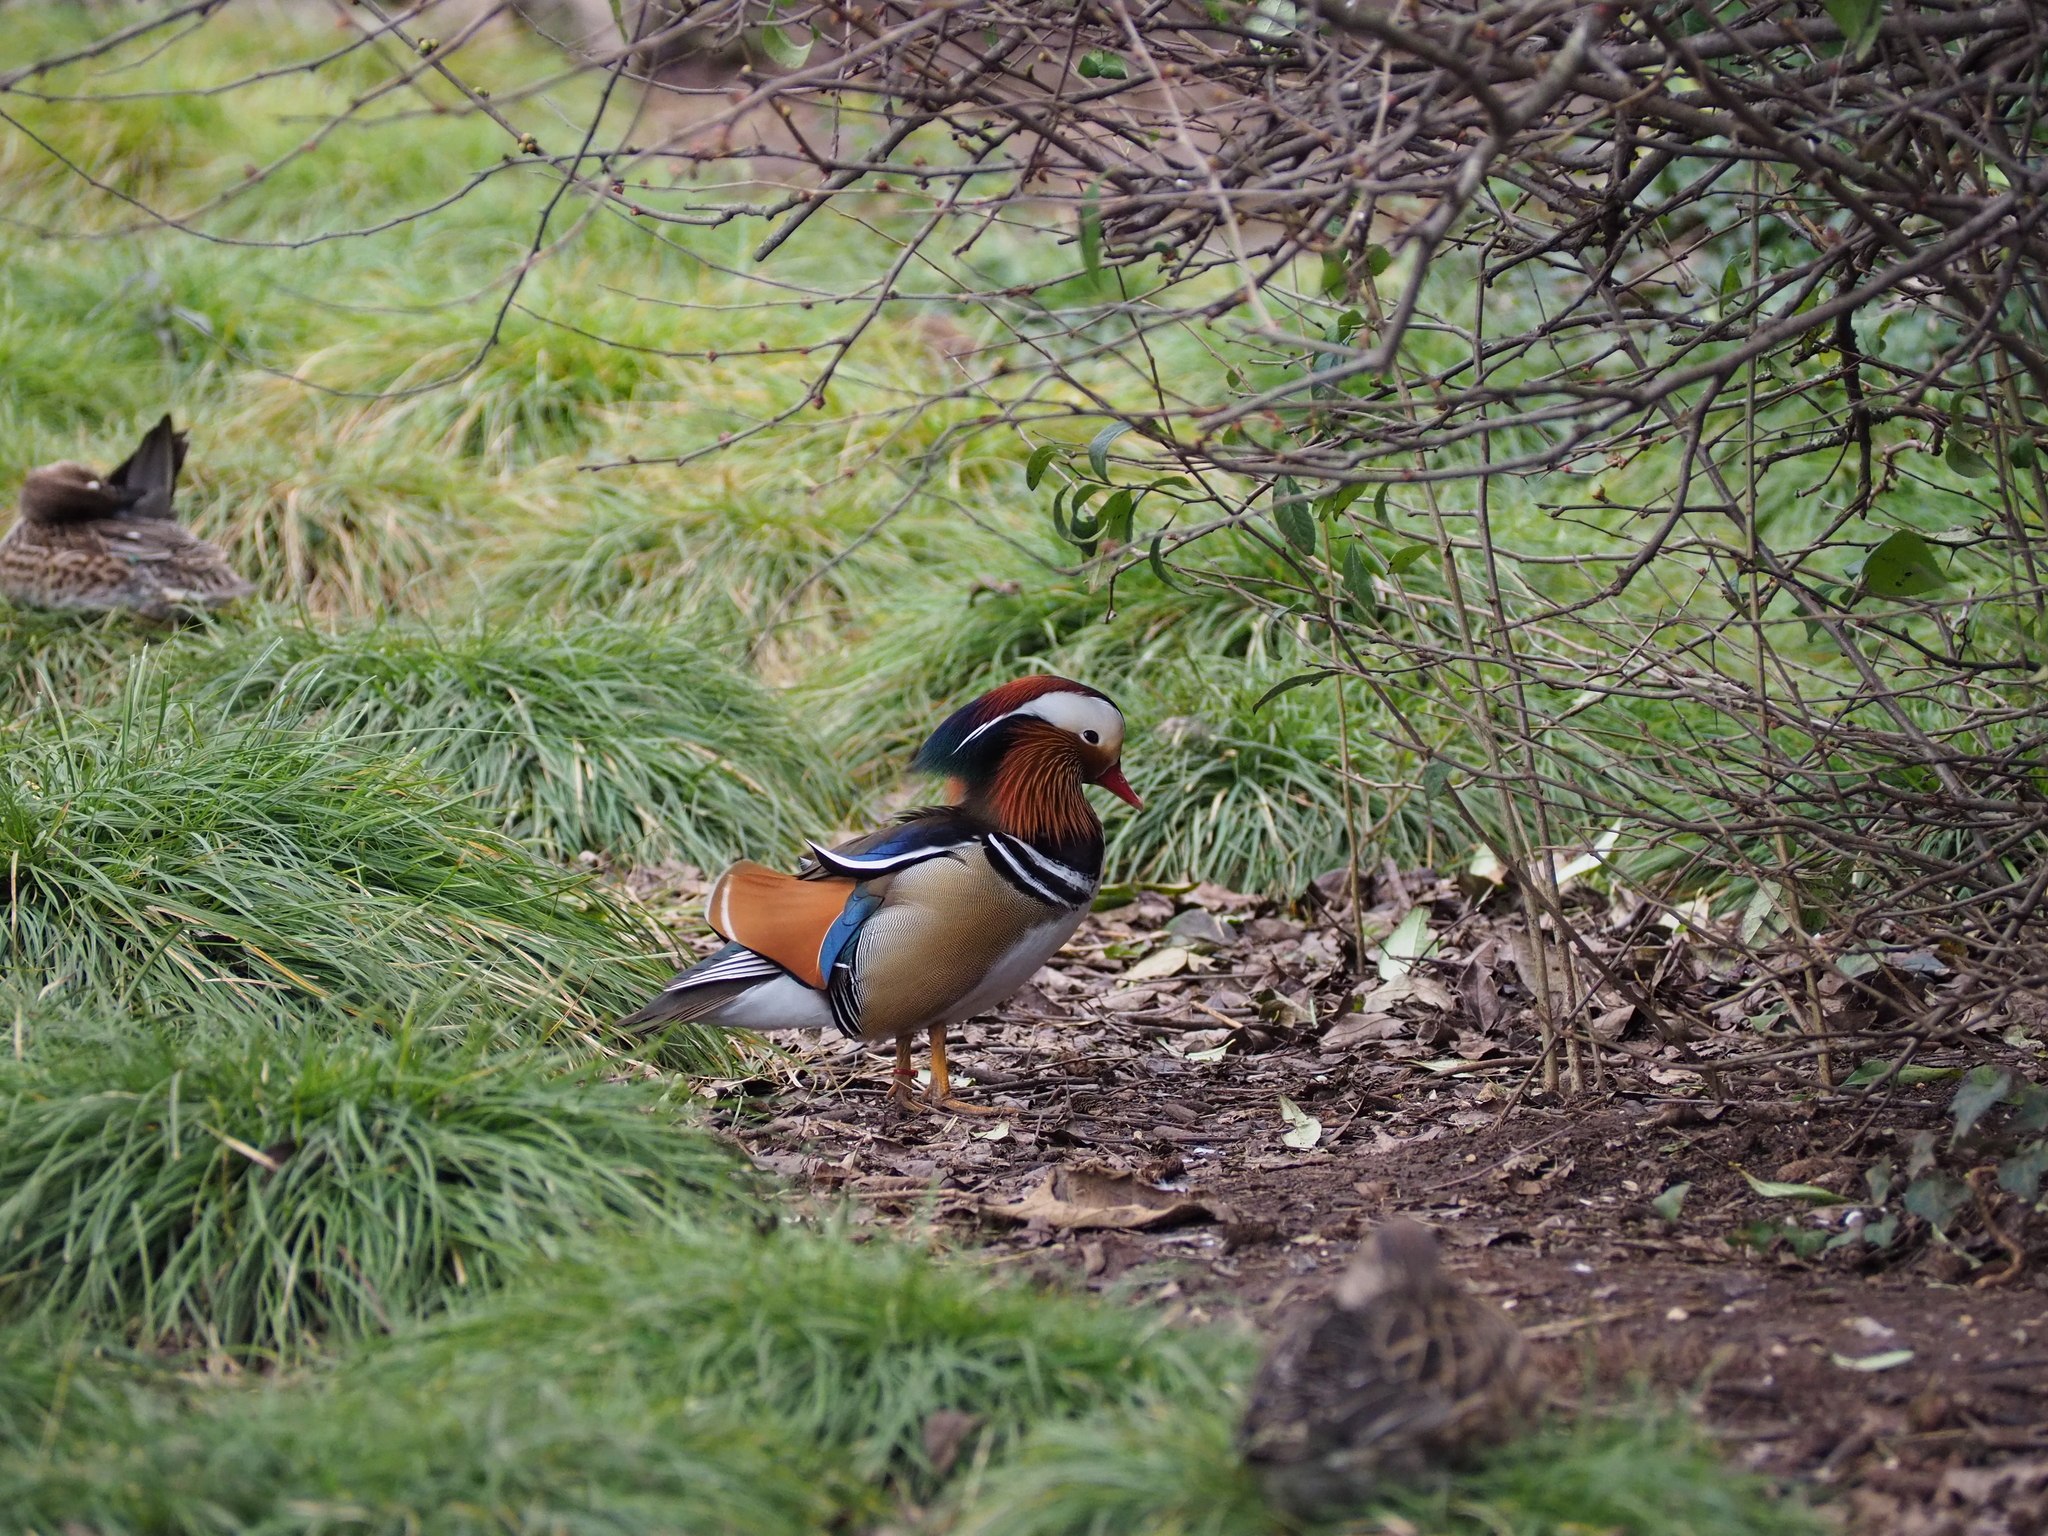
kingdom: Animalia
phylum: Chordata
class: Aves
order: Anseriformes
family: Anatidae
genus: Aix
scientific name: Aix galericulata
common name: Mandarin duck
